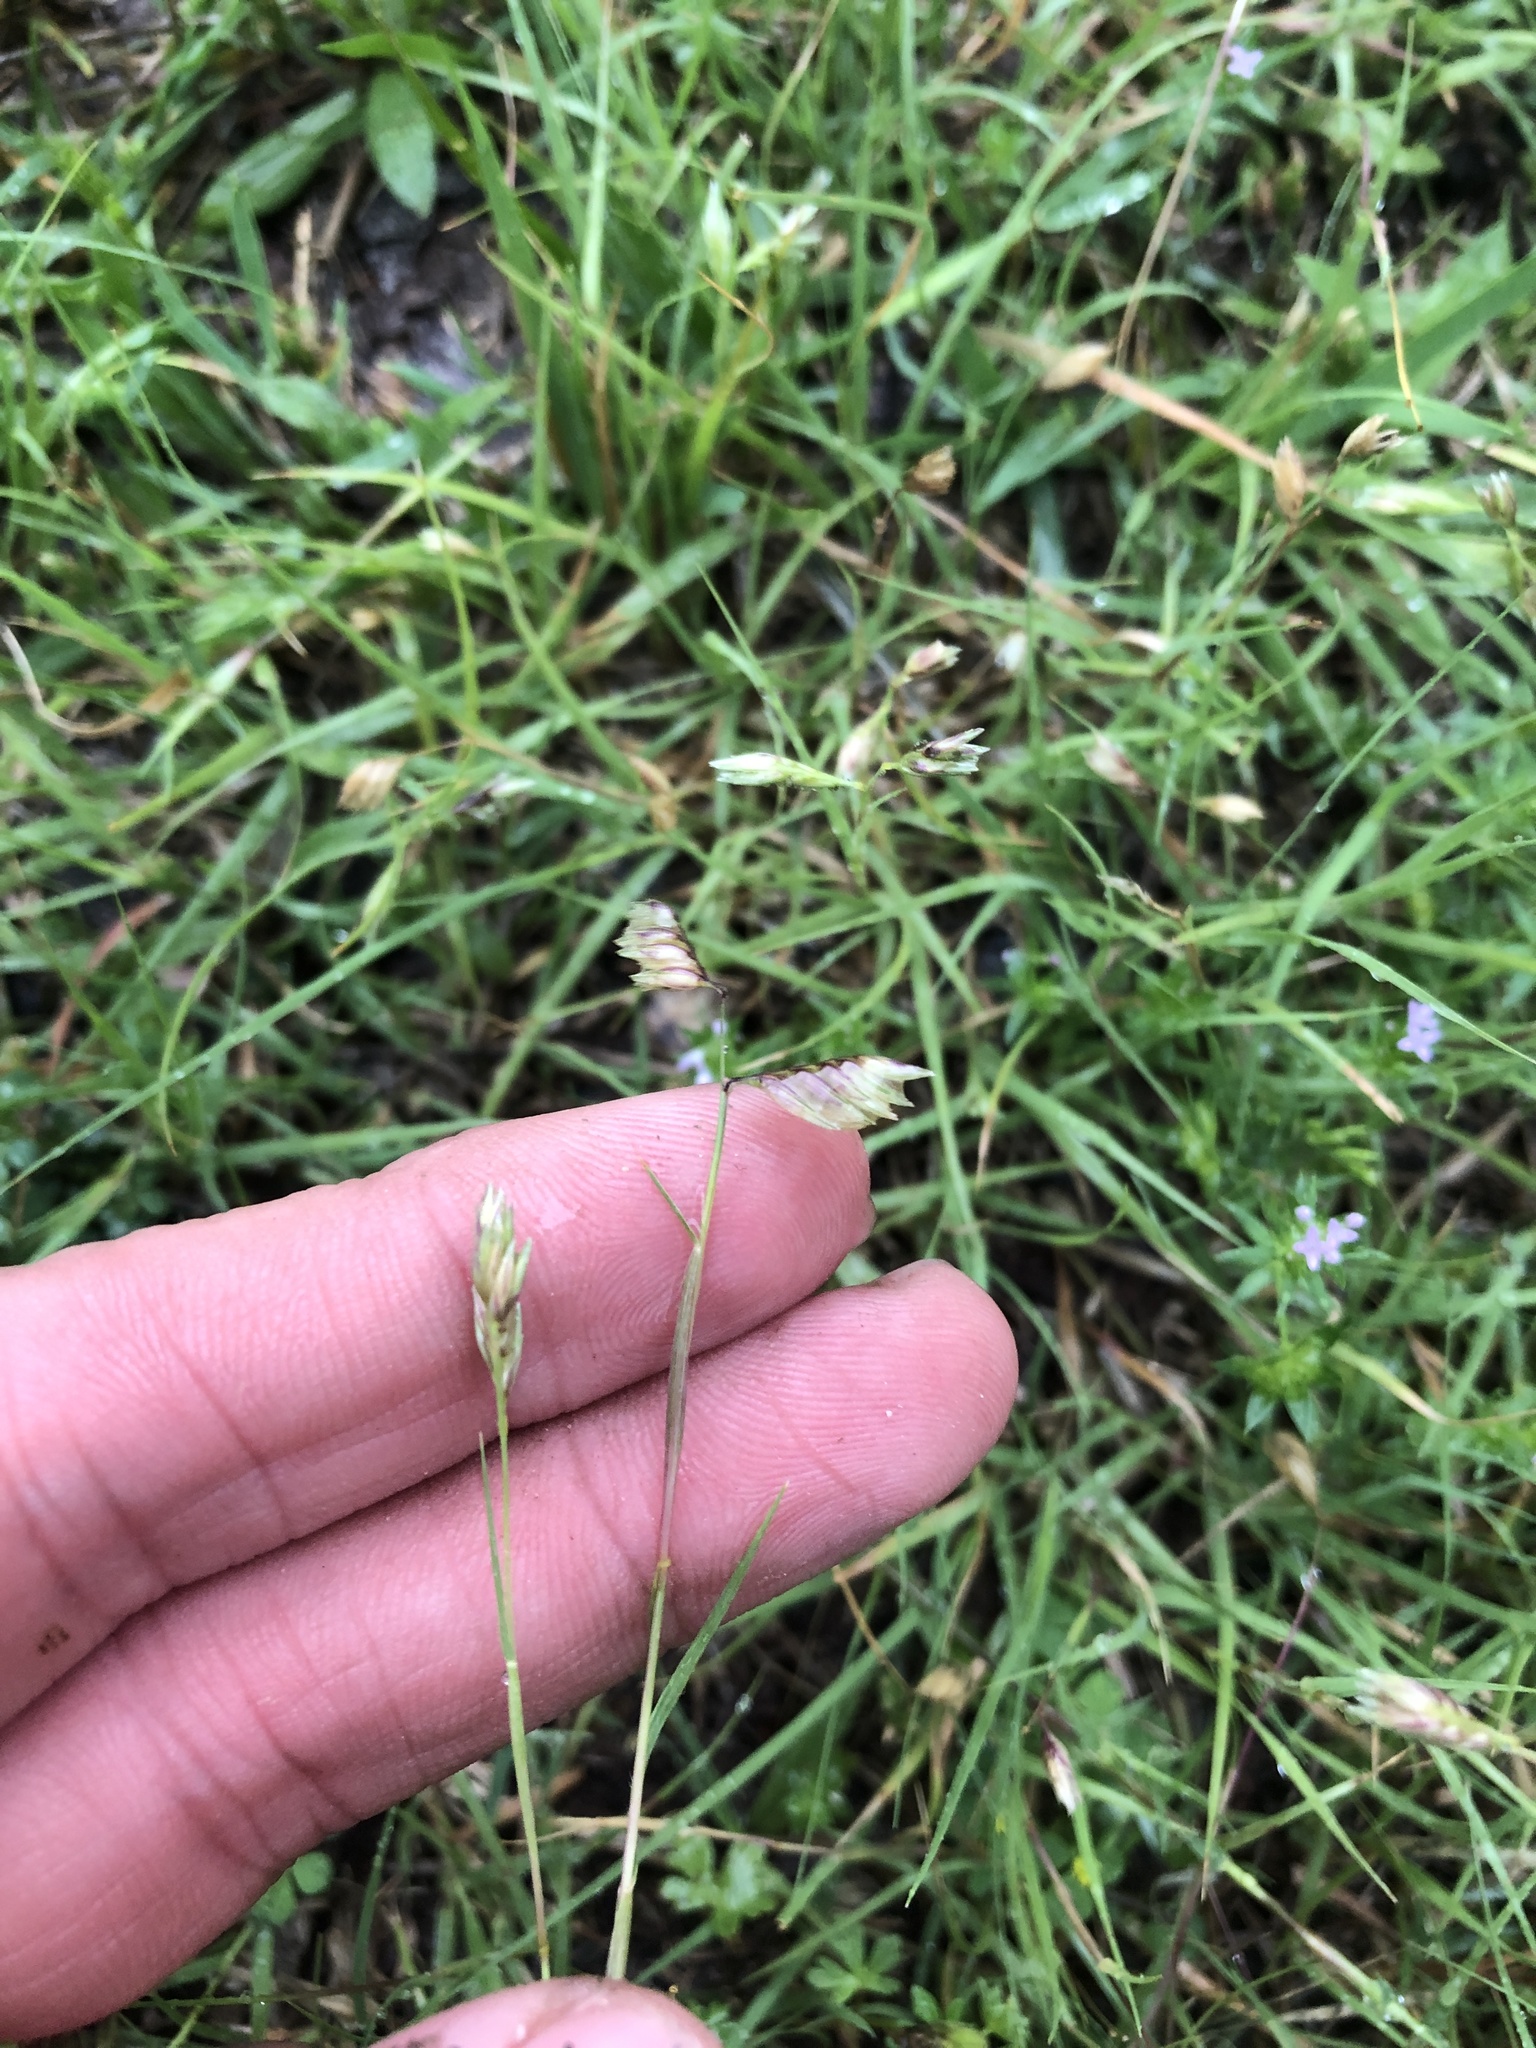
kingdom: Plantae
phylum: Tracheophyta
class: Liliopsida
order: Poales
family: Poaceae
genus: Bouteloua
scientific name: Bouteloua dactyloides
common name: Buffalo grass
